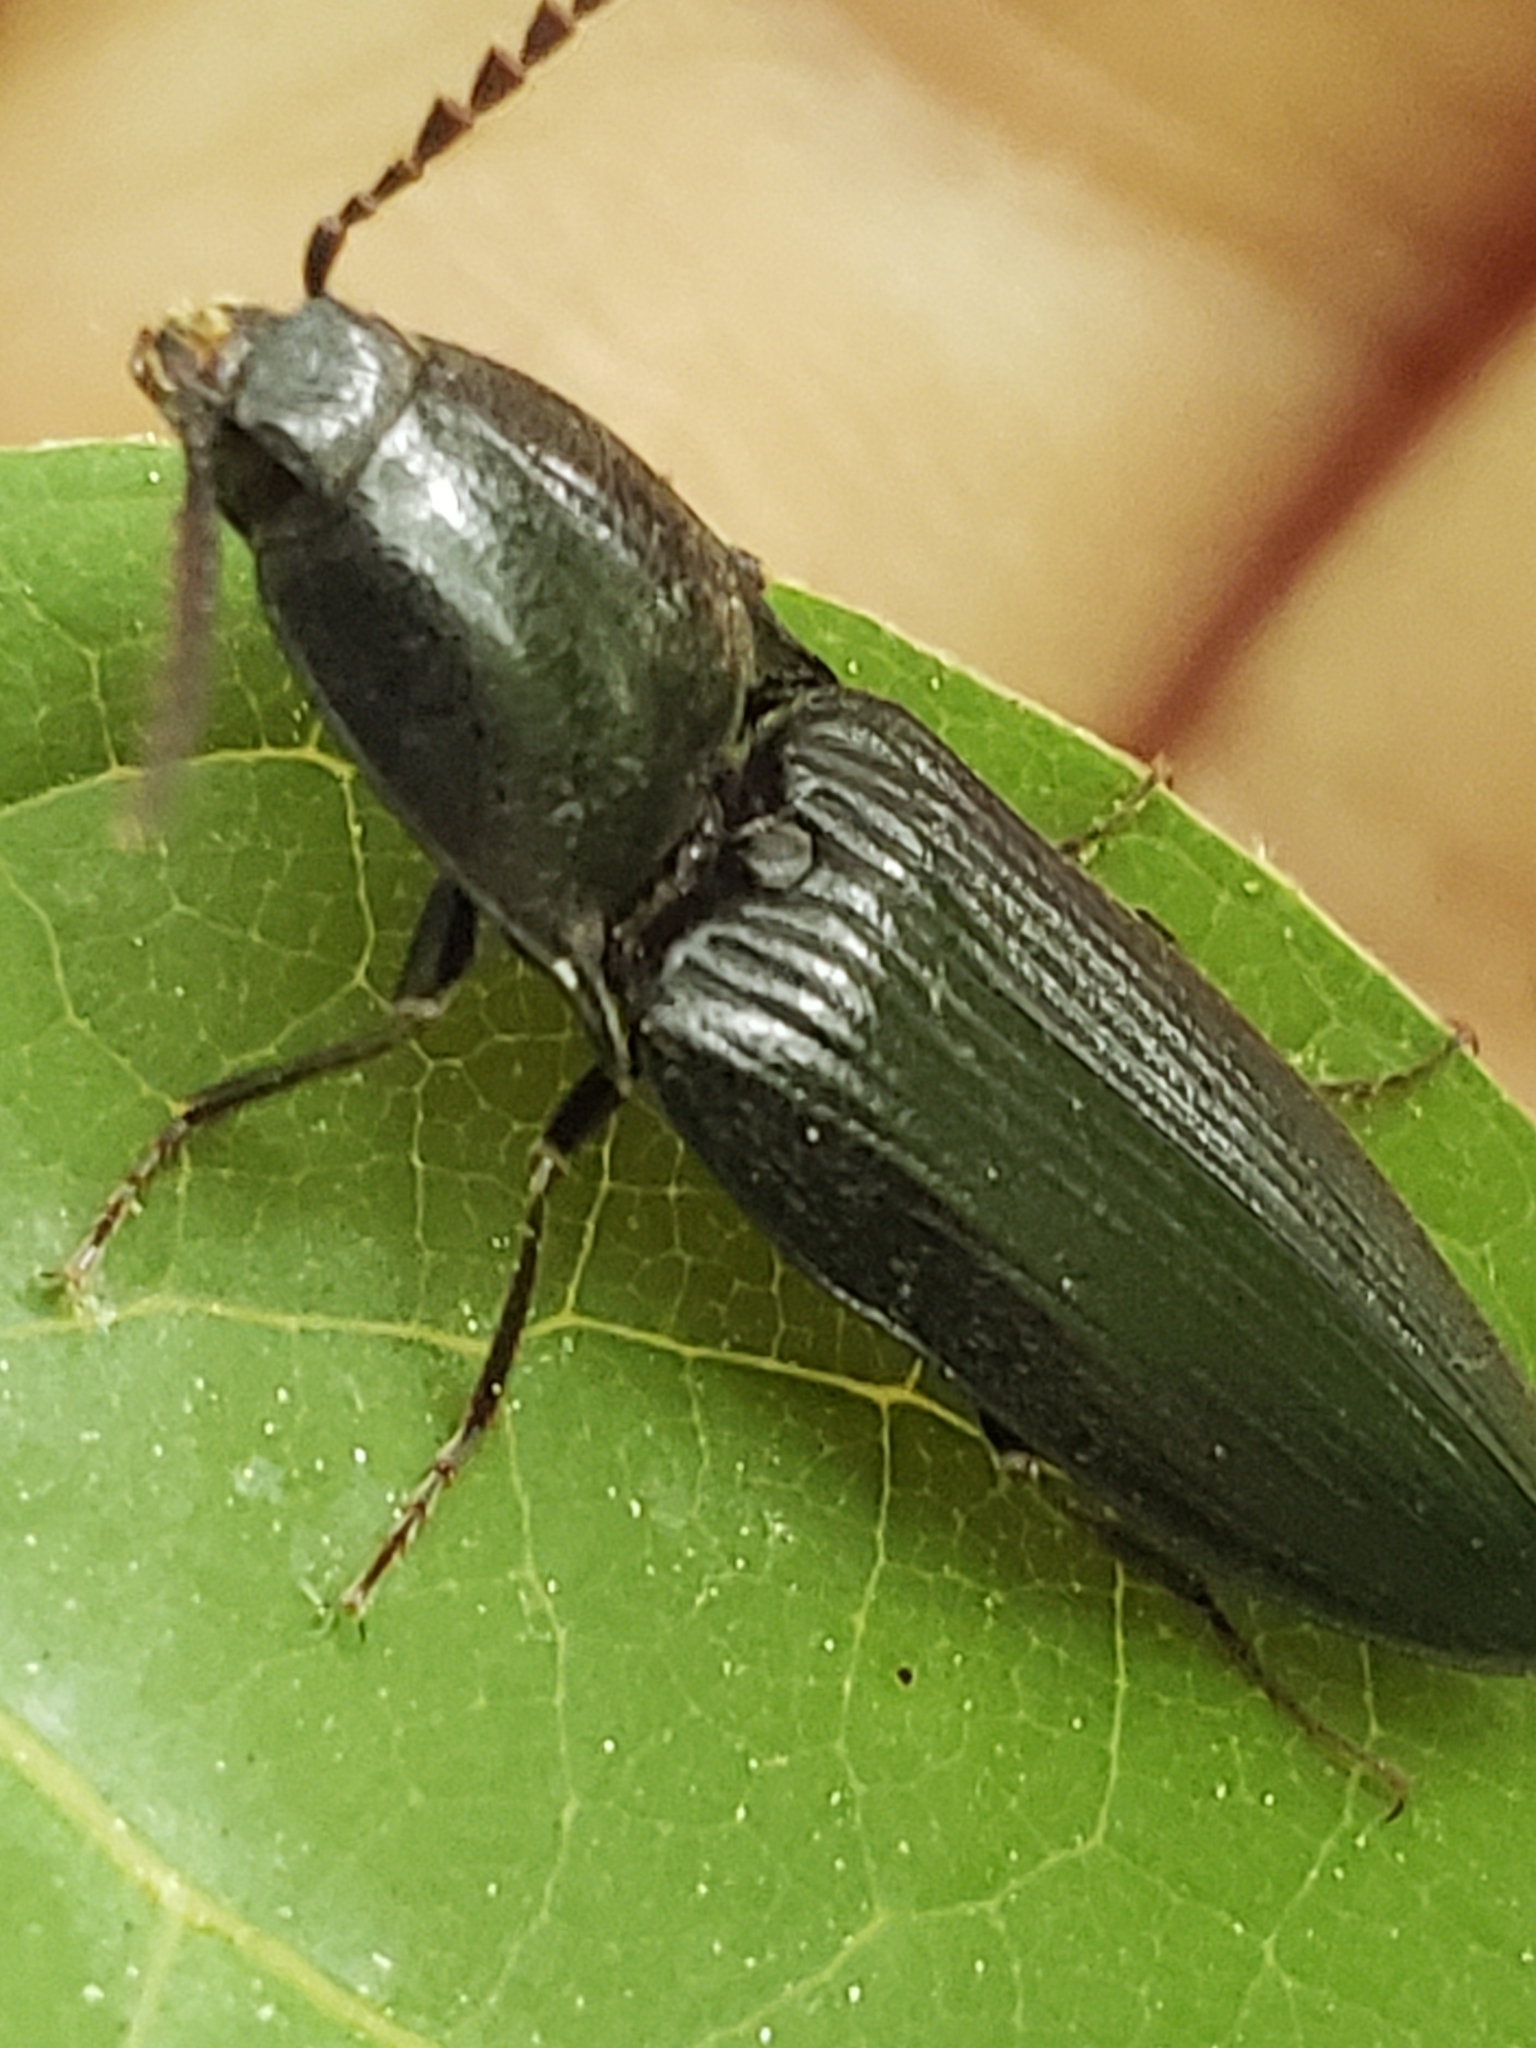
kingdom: Animalia
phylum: Arthropoda
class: Insecta
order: Coleoptera
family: Elateridae
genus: Neopristilophus
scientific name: Neopristilophus
